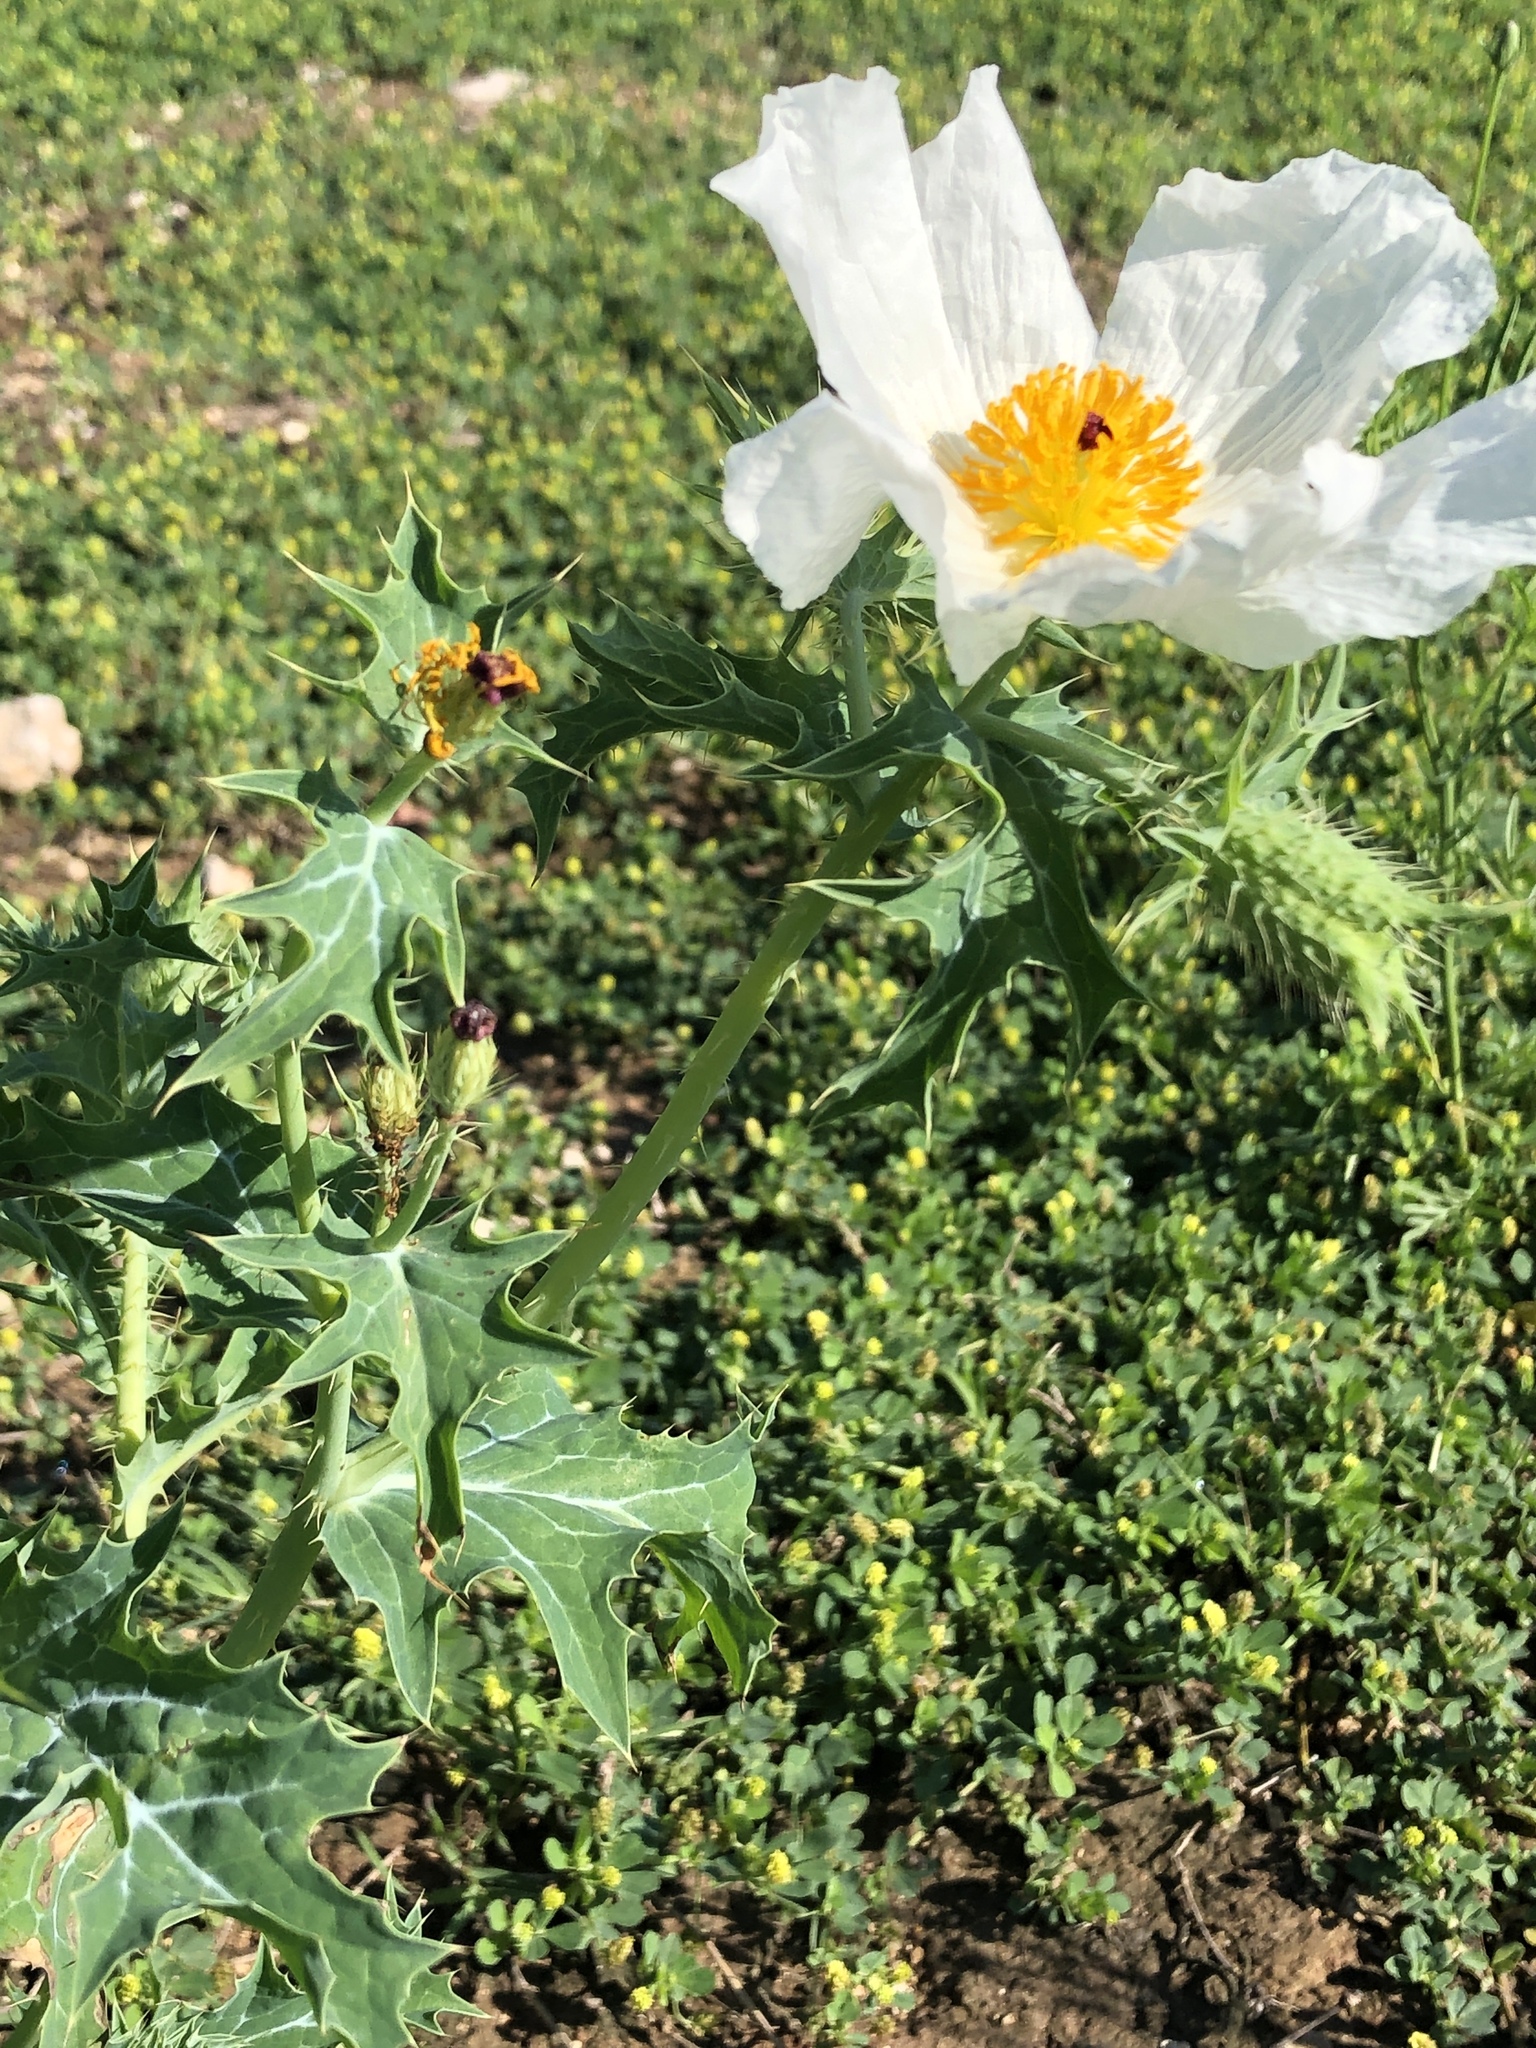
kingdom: Plantae
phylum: Tracheophyta
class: Magnoliopsida
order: Ranunculales
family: Papaveraceae
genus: Argemone
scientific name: Argemone albiflora
